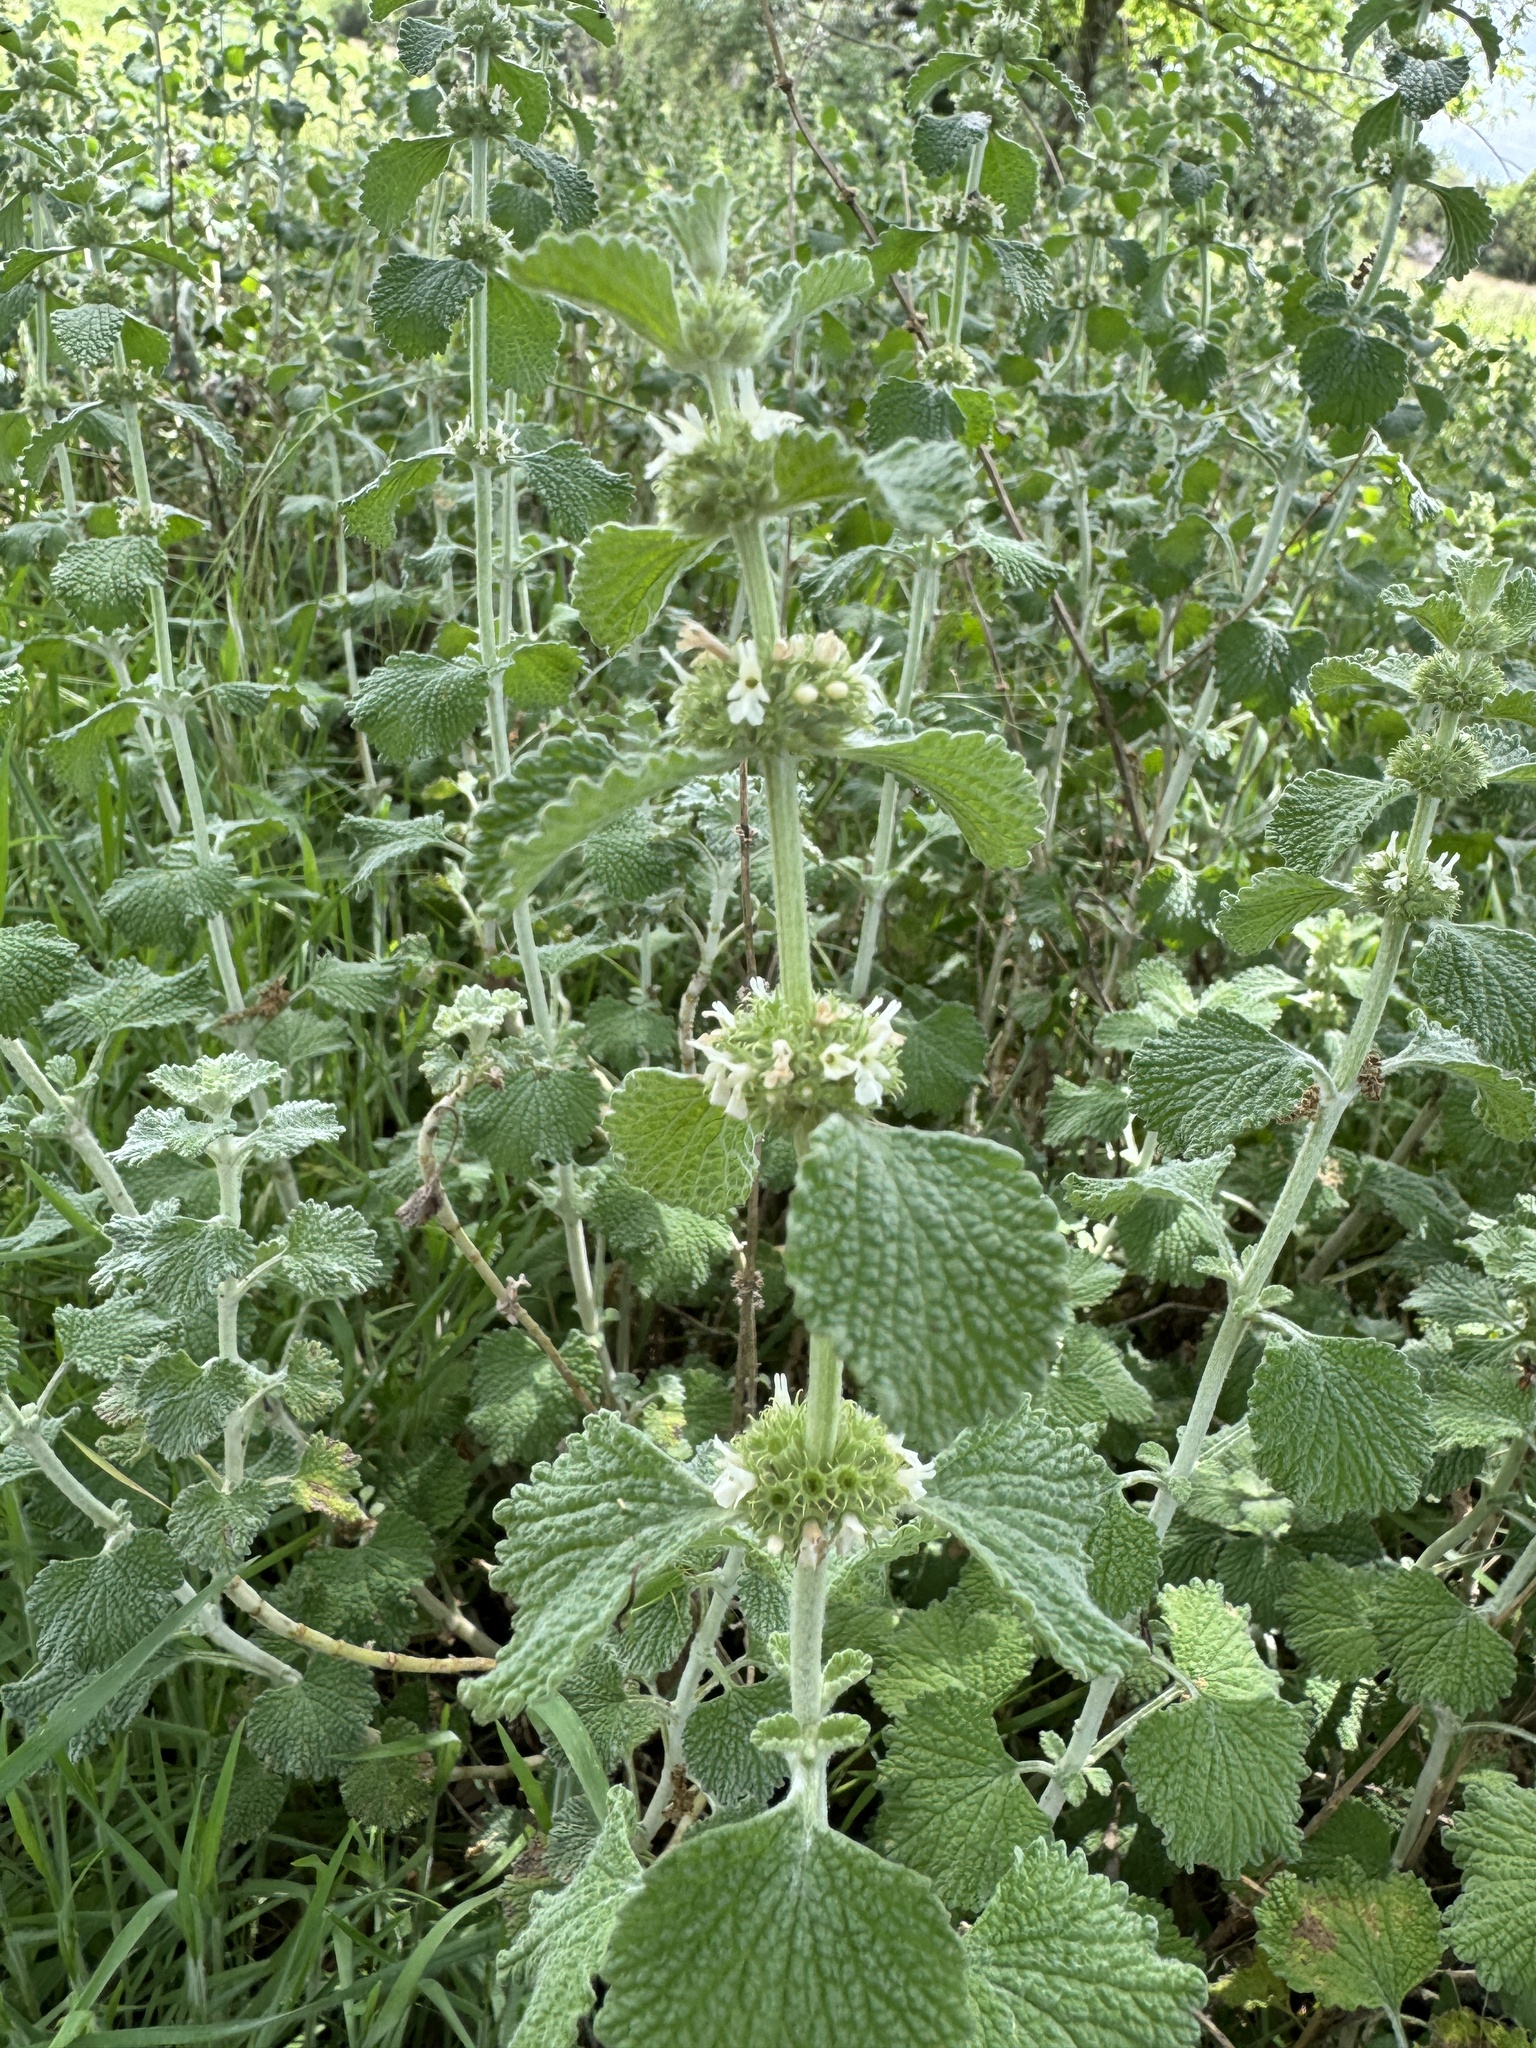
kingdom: Plantae
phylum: Tracheophyta
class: Magnoliopsida
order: Lamiales
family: Lamiaceae
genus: Marrubium
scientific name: Marrubium vulgare
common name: Horehound
